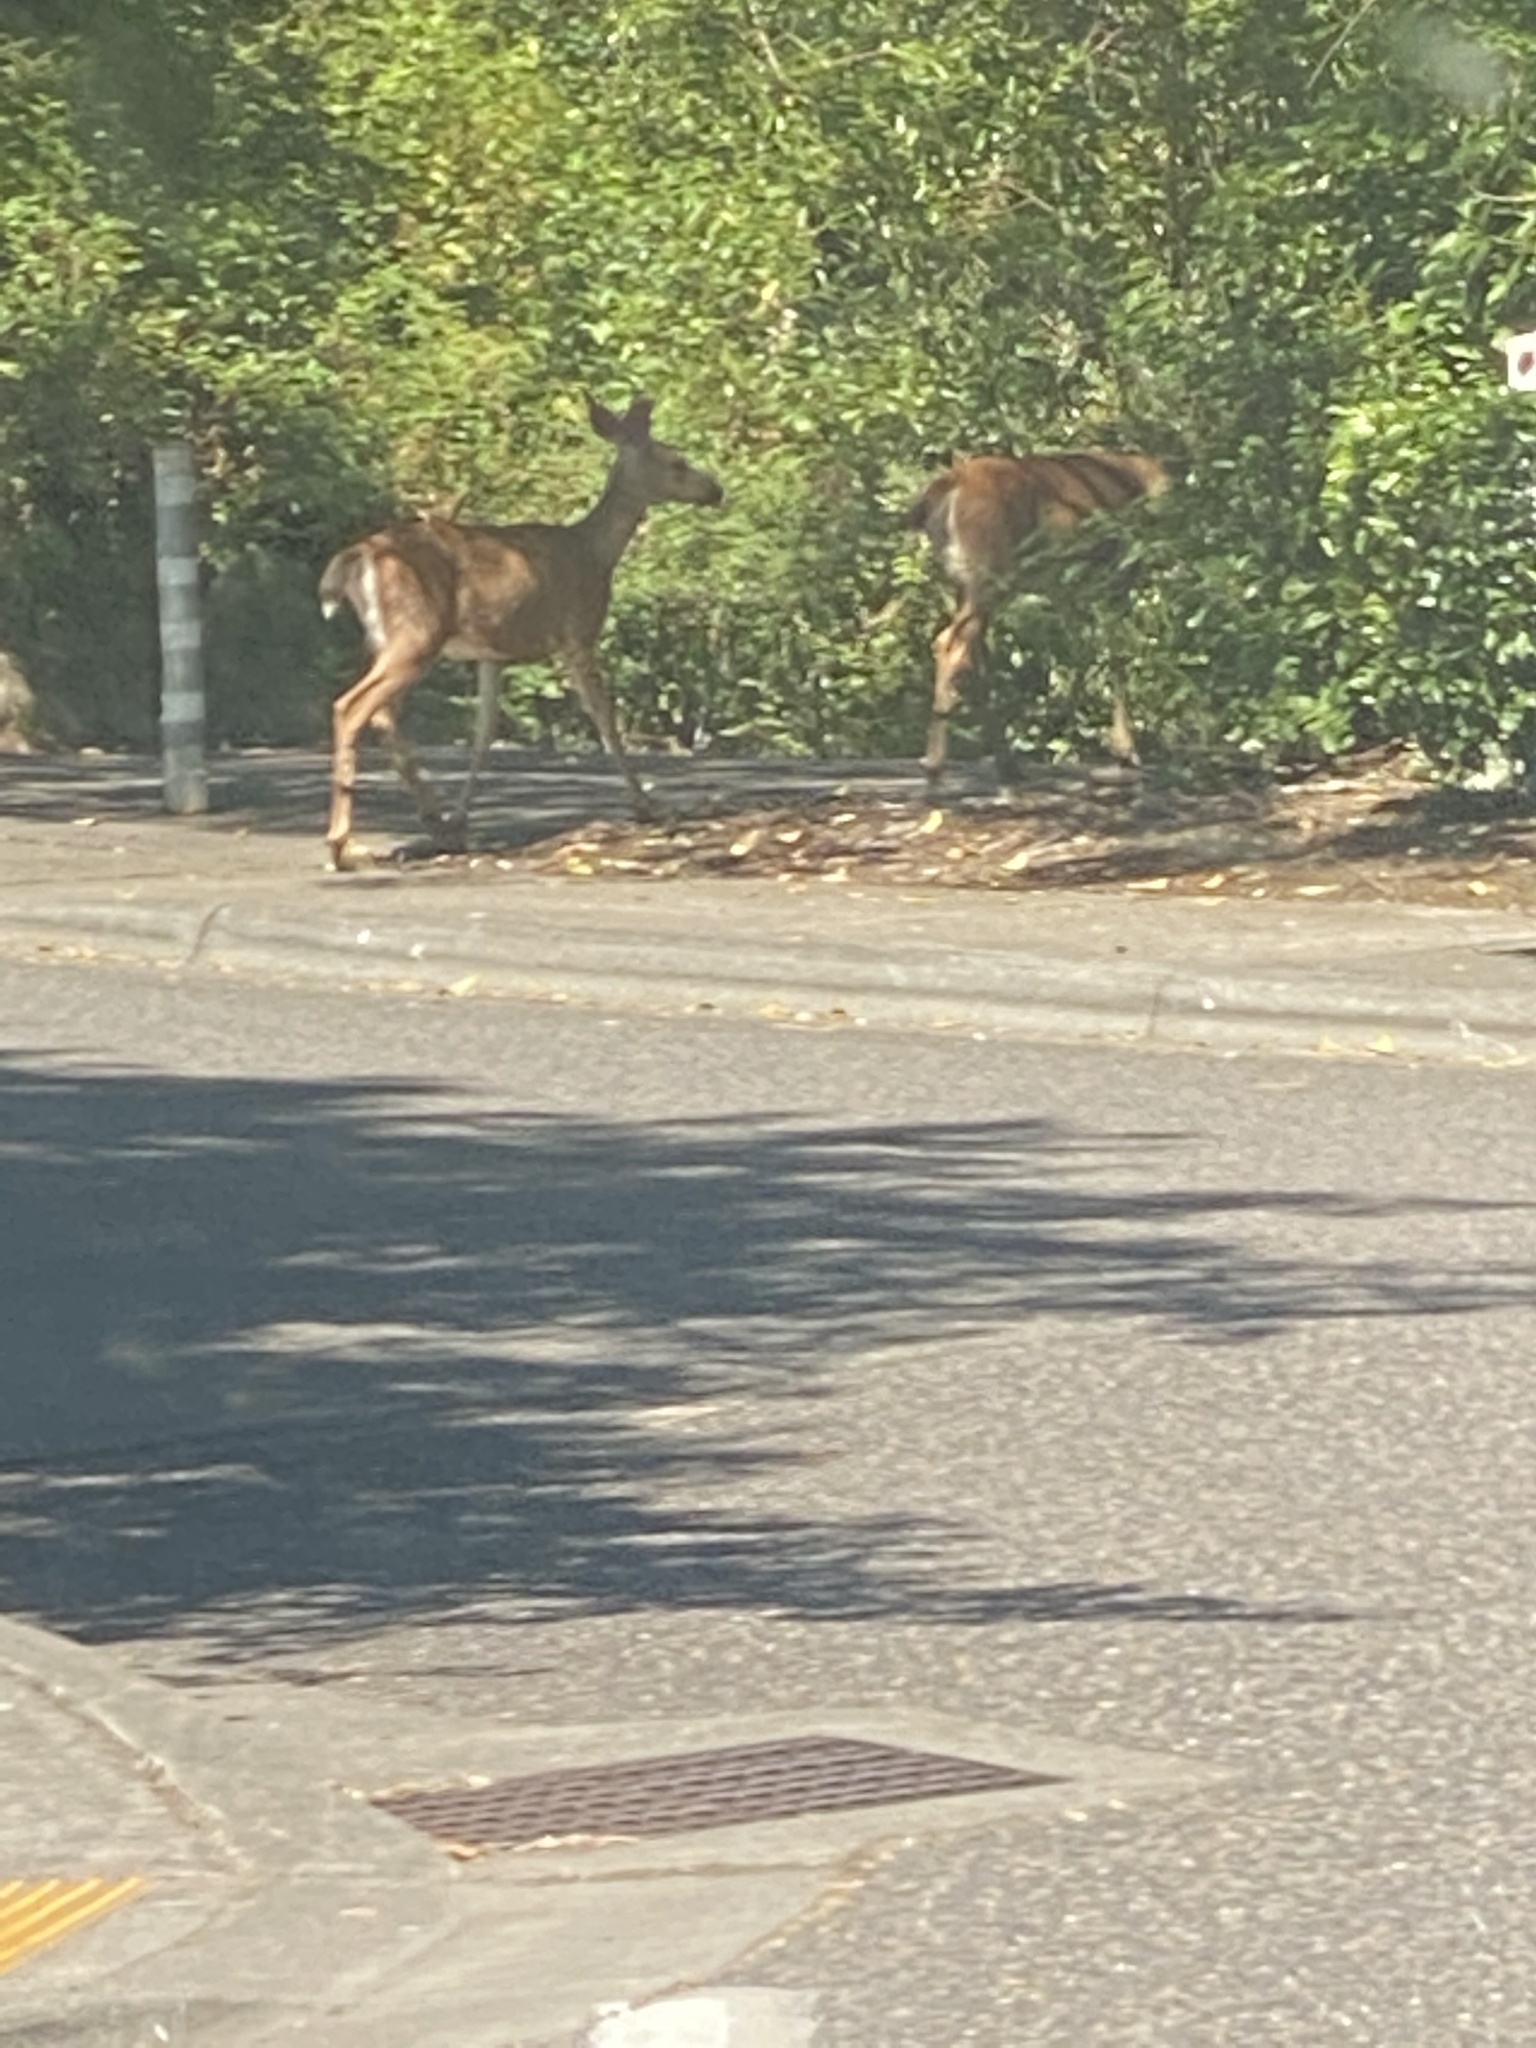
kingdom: Animalia
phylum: Chordata
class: Mammalia
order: Artiodactyla
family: Cervidae
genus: Odocoileus
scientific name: Odocoileus hemionus
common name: Mule deer
